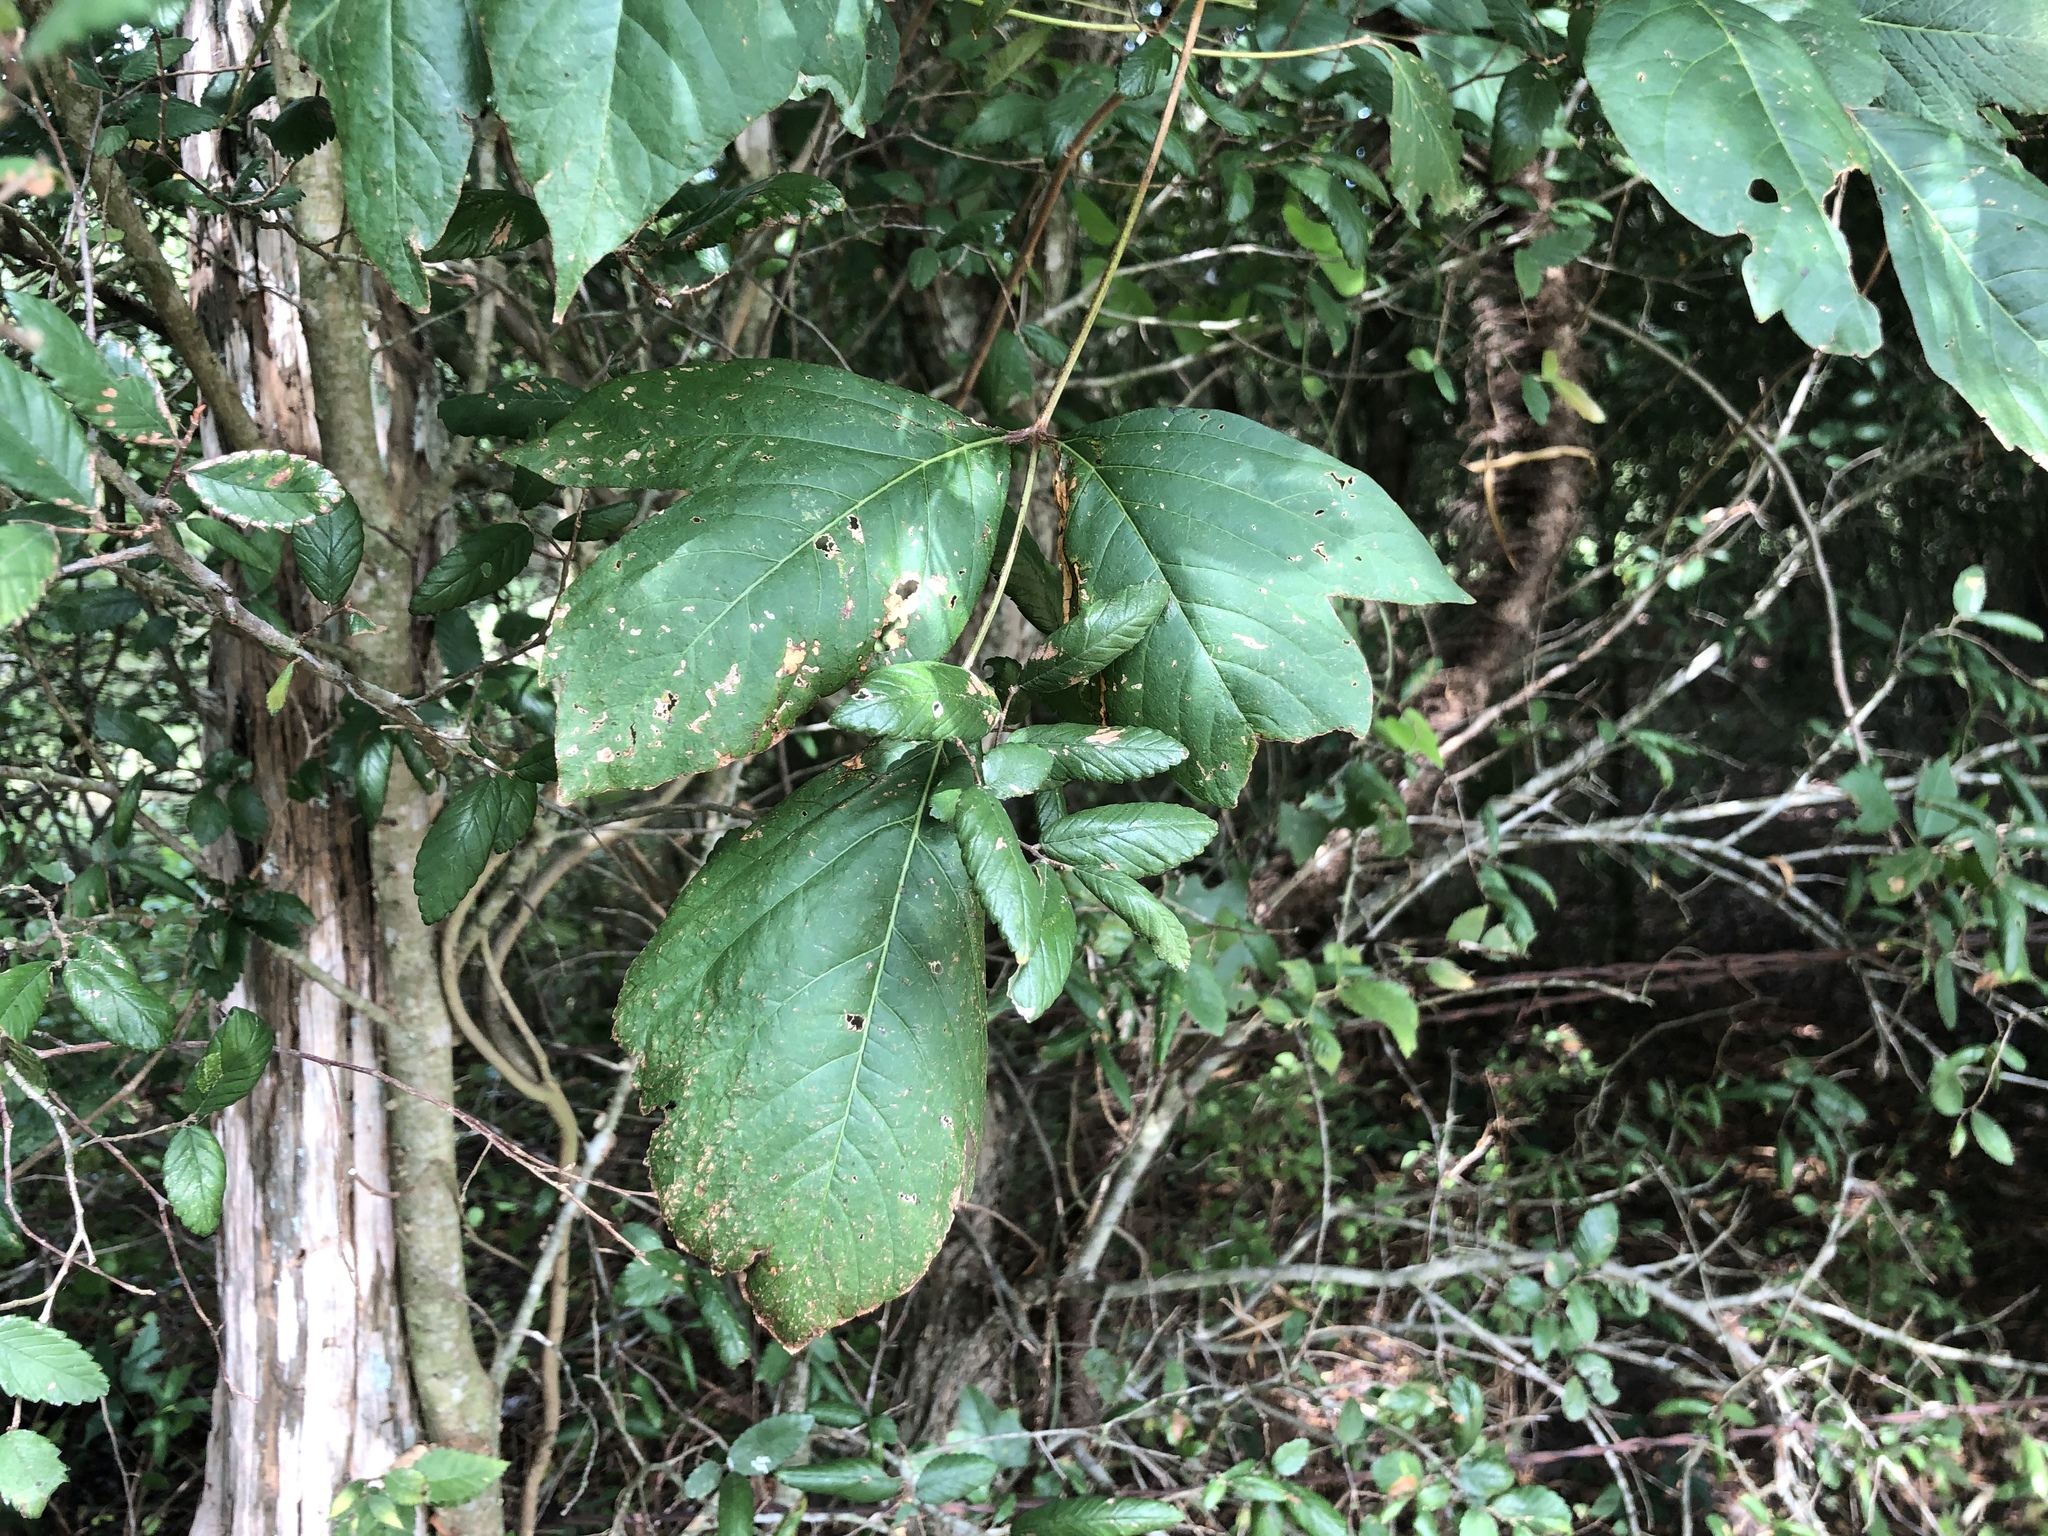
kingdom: Plantae
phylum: Tracheophyta
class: Magnoliopsida
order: Sapindales
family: Anacardiaceae
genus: Toxicodendron
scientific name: Toxicodendron radicans
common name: Poison ivy
